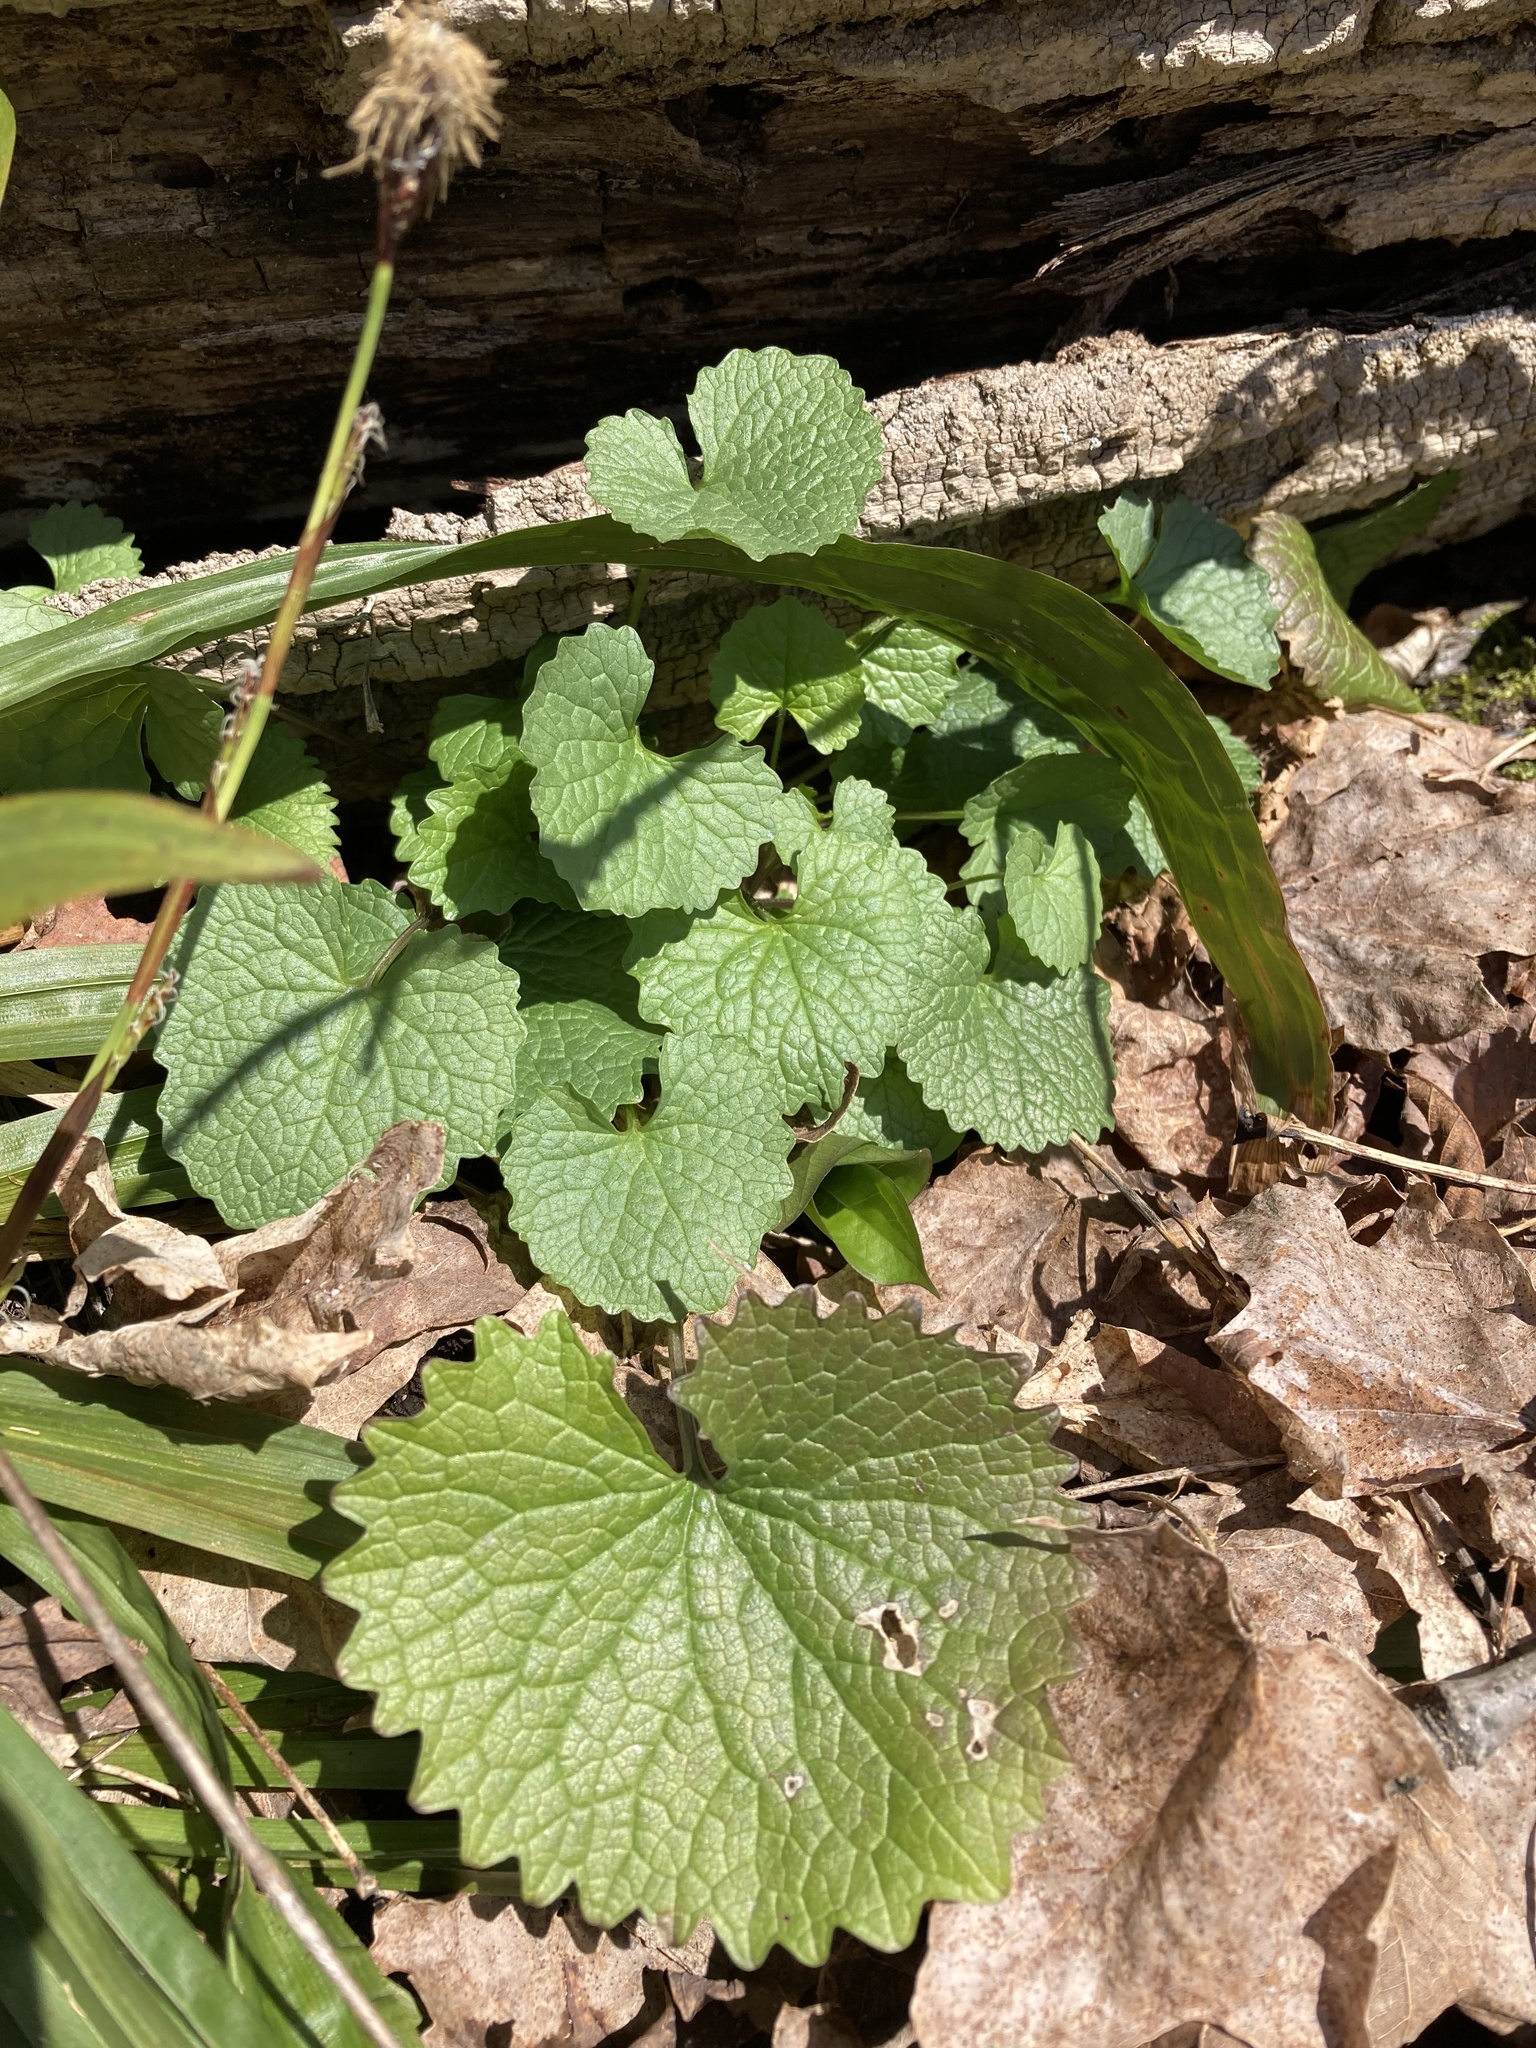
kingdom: Plantae
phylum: Tracheophyta
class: Magnoliopsida
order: Brassicales
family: Brassicaceae
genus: Alliaria
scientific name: Alliaria petiolata
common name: Garlic mustard
